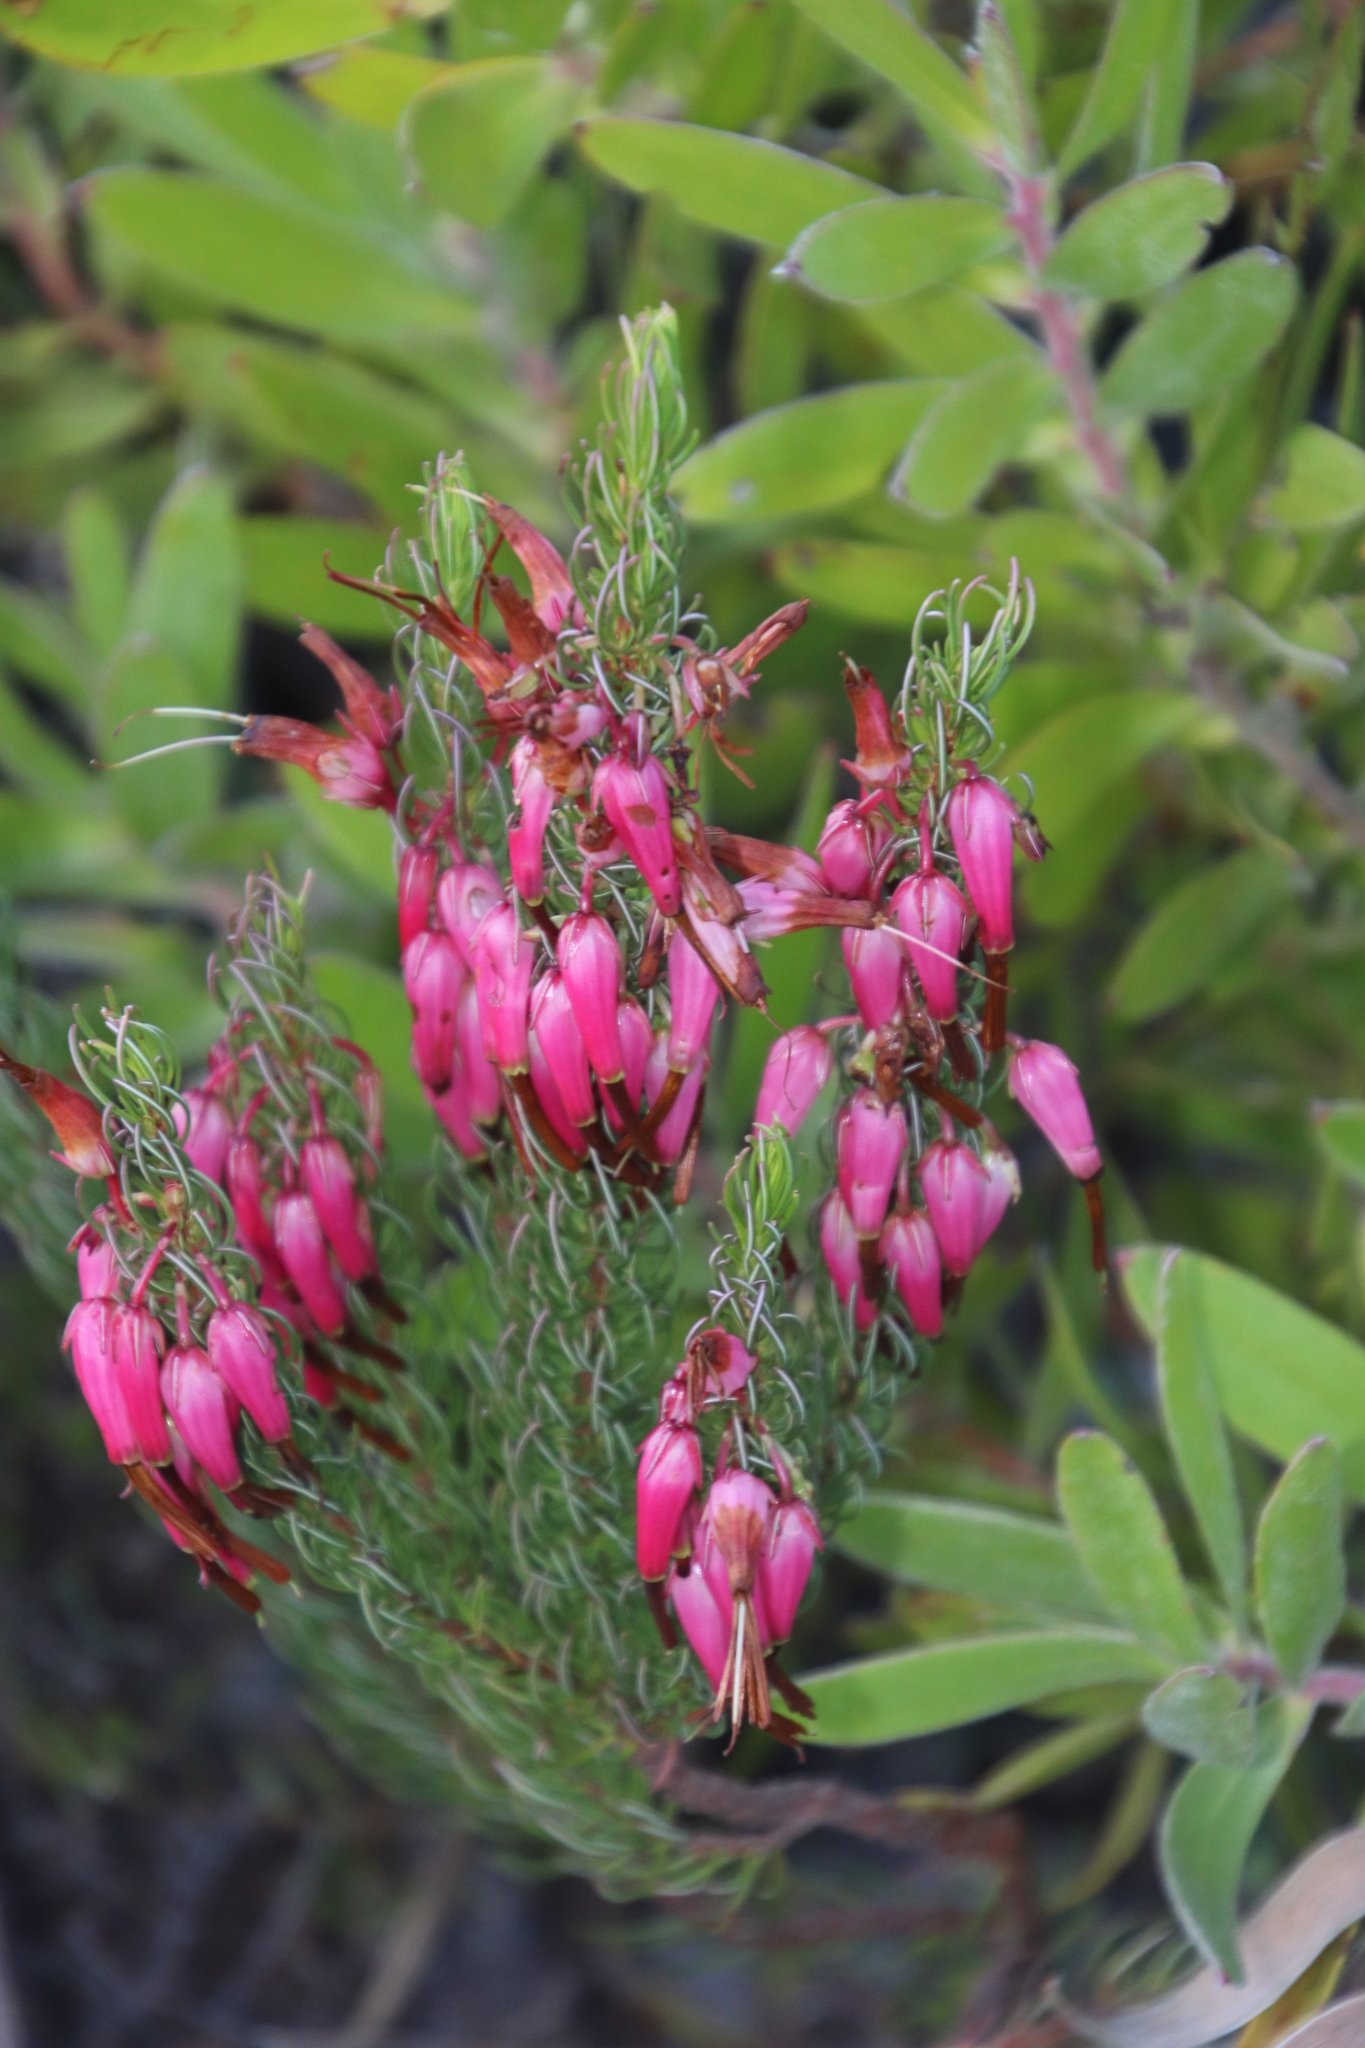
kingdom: Plantae
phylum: Tracheophyta
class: Magnoliopsida
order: Ericales
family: Ericaceae
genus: Erica
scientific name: Erica plukenetii
